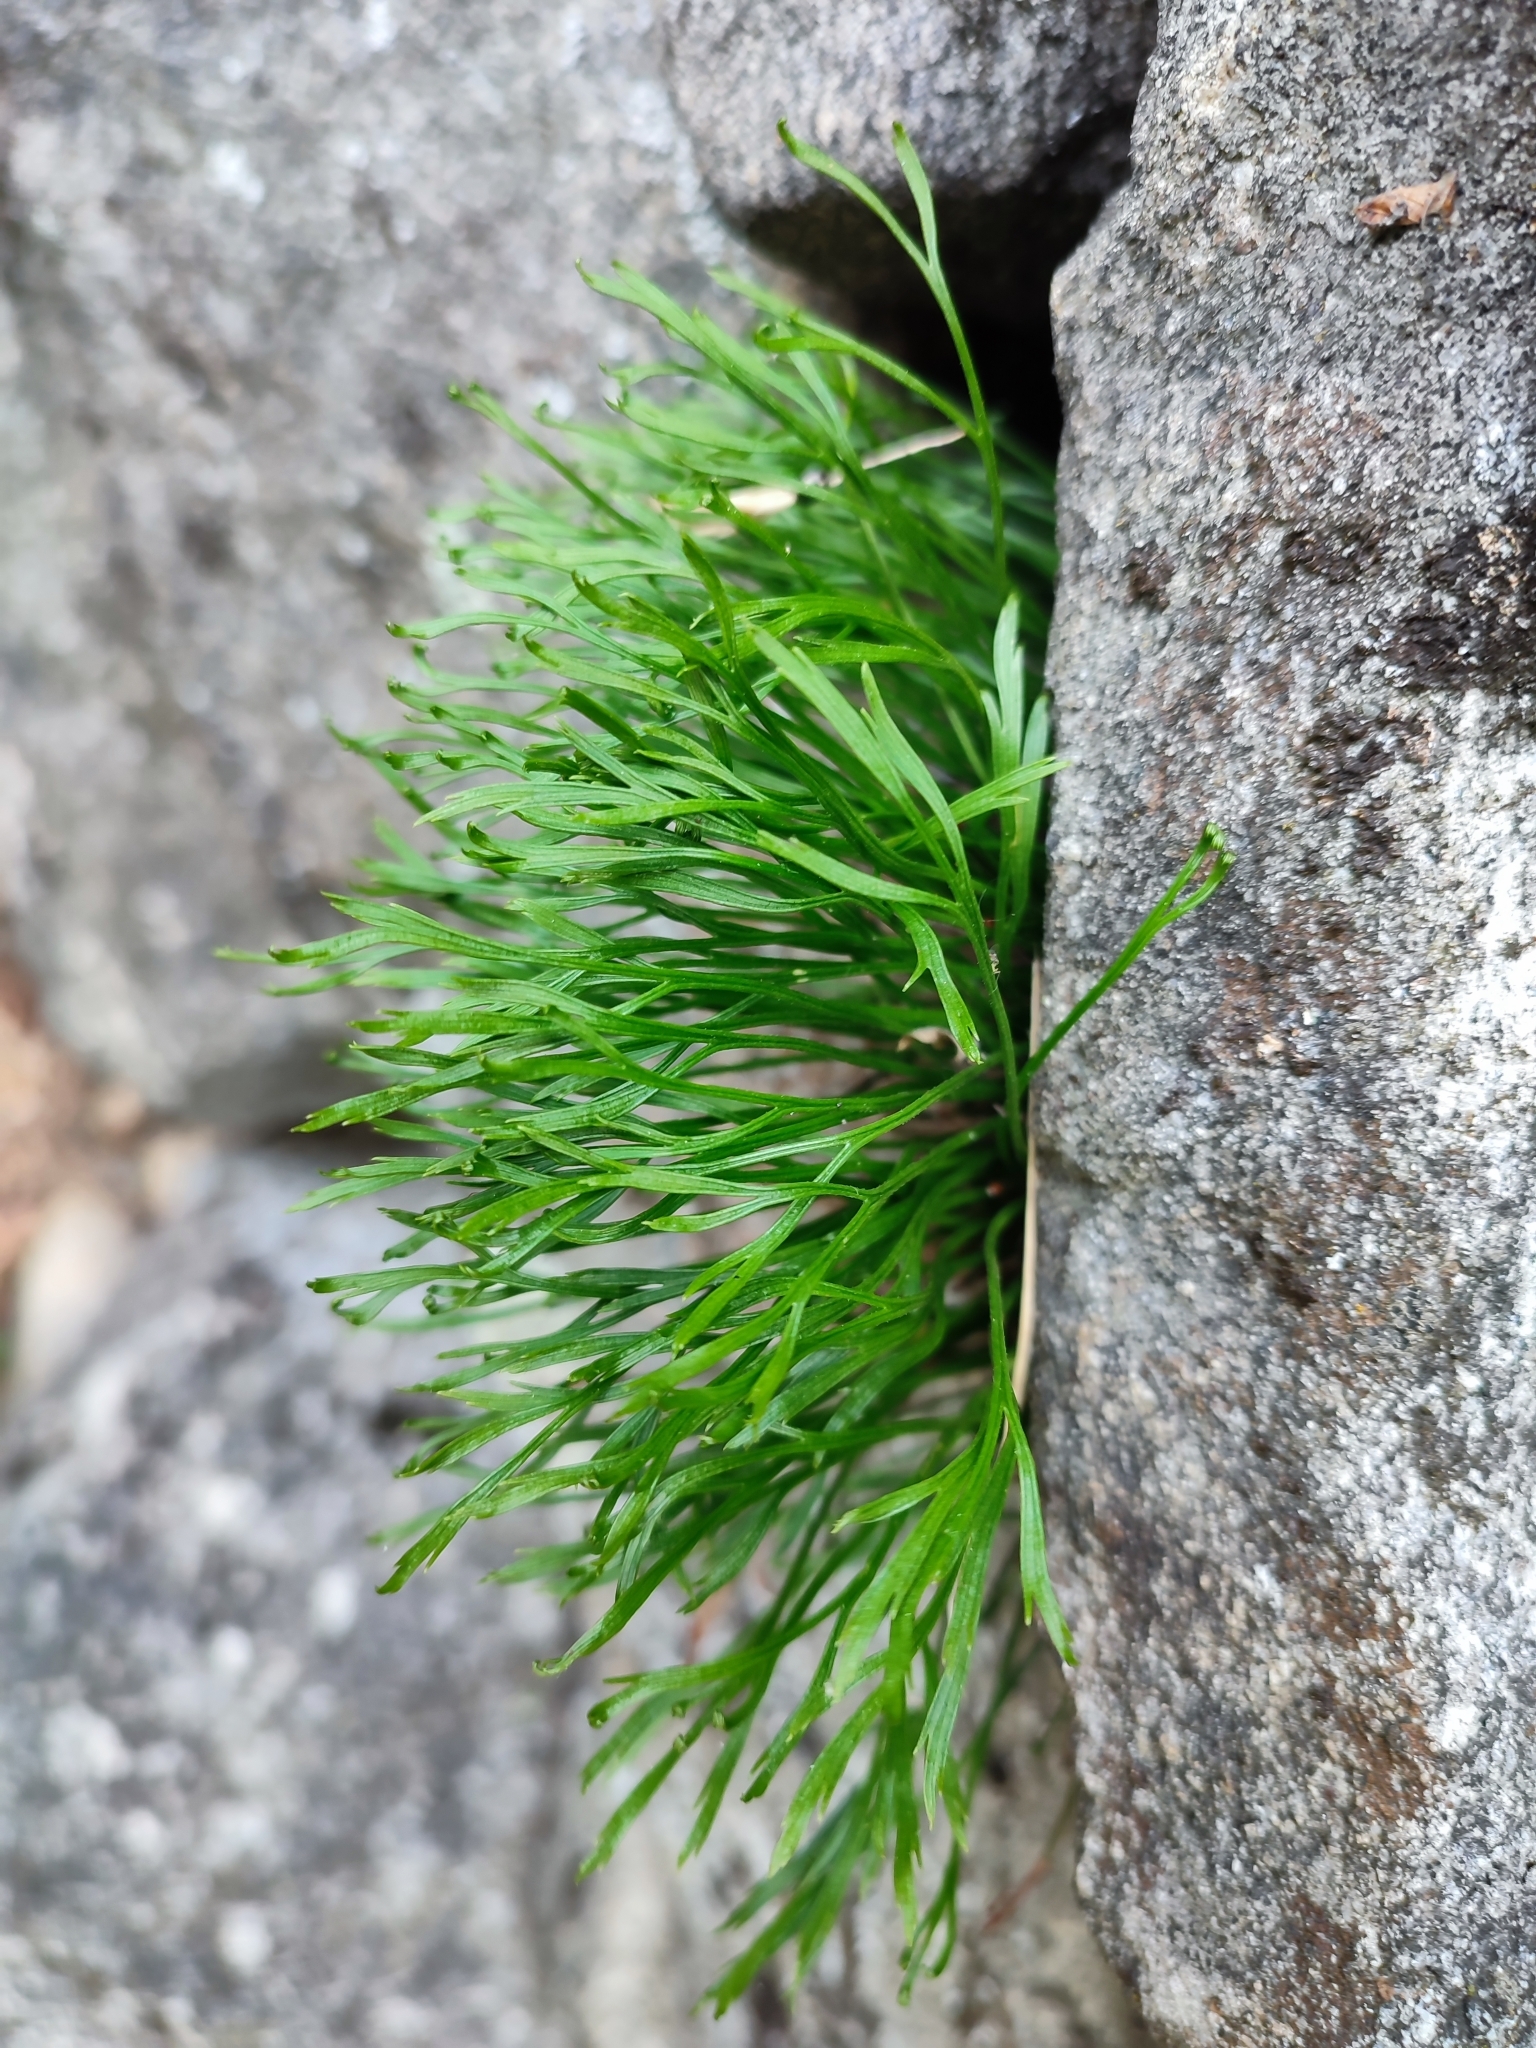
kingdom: Plantae
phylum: Tracheophyta
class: Polypodiopsida
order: Polypodiales
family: Aspleniaceae
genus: Asplenium
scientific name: Asplenium septentrionale
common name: Forked spleenwort
